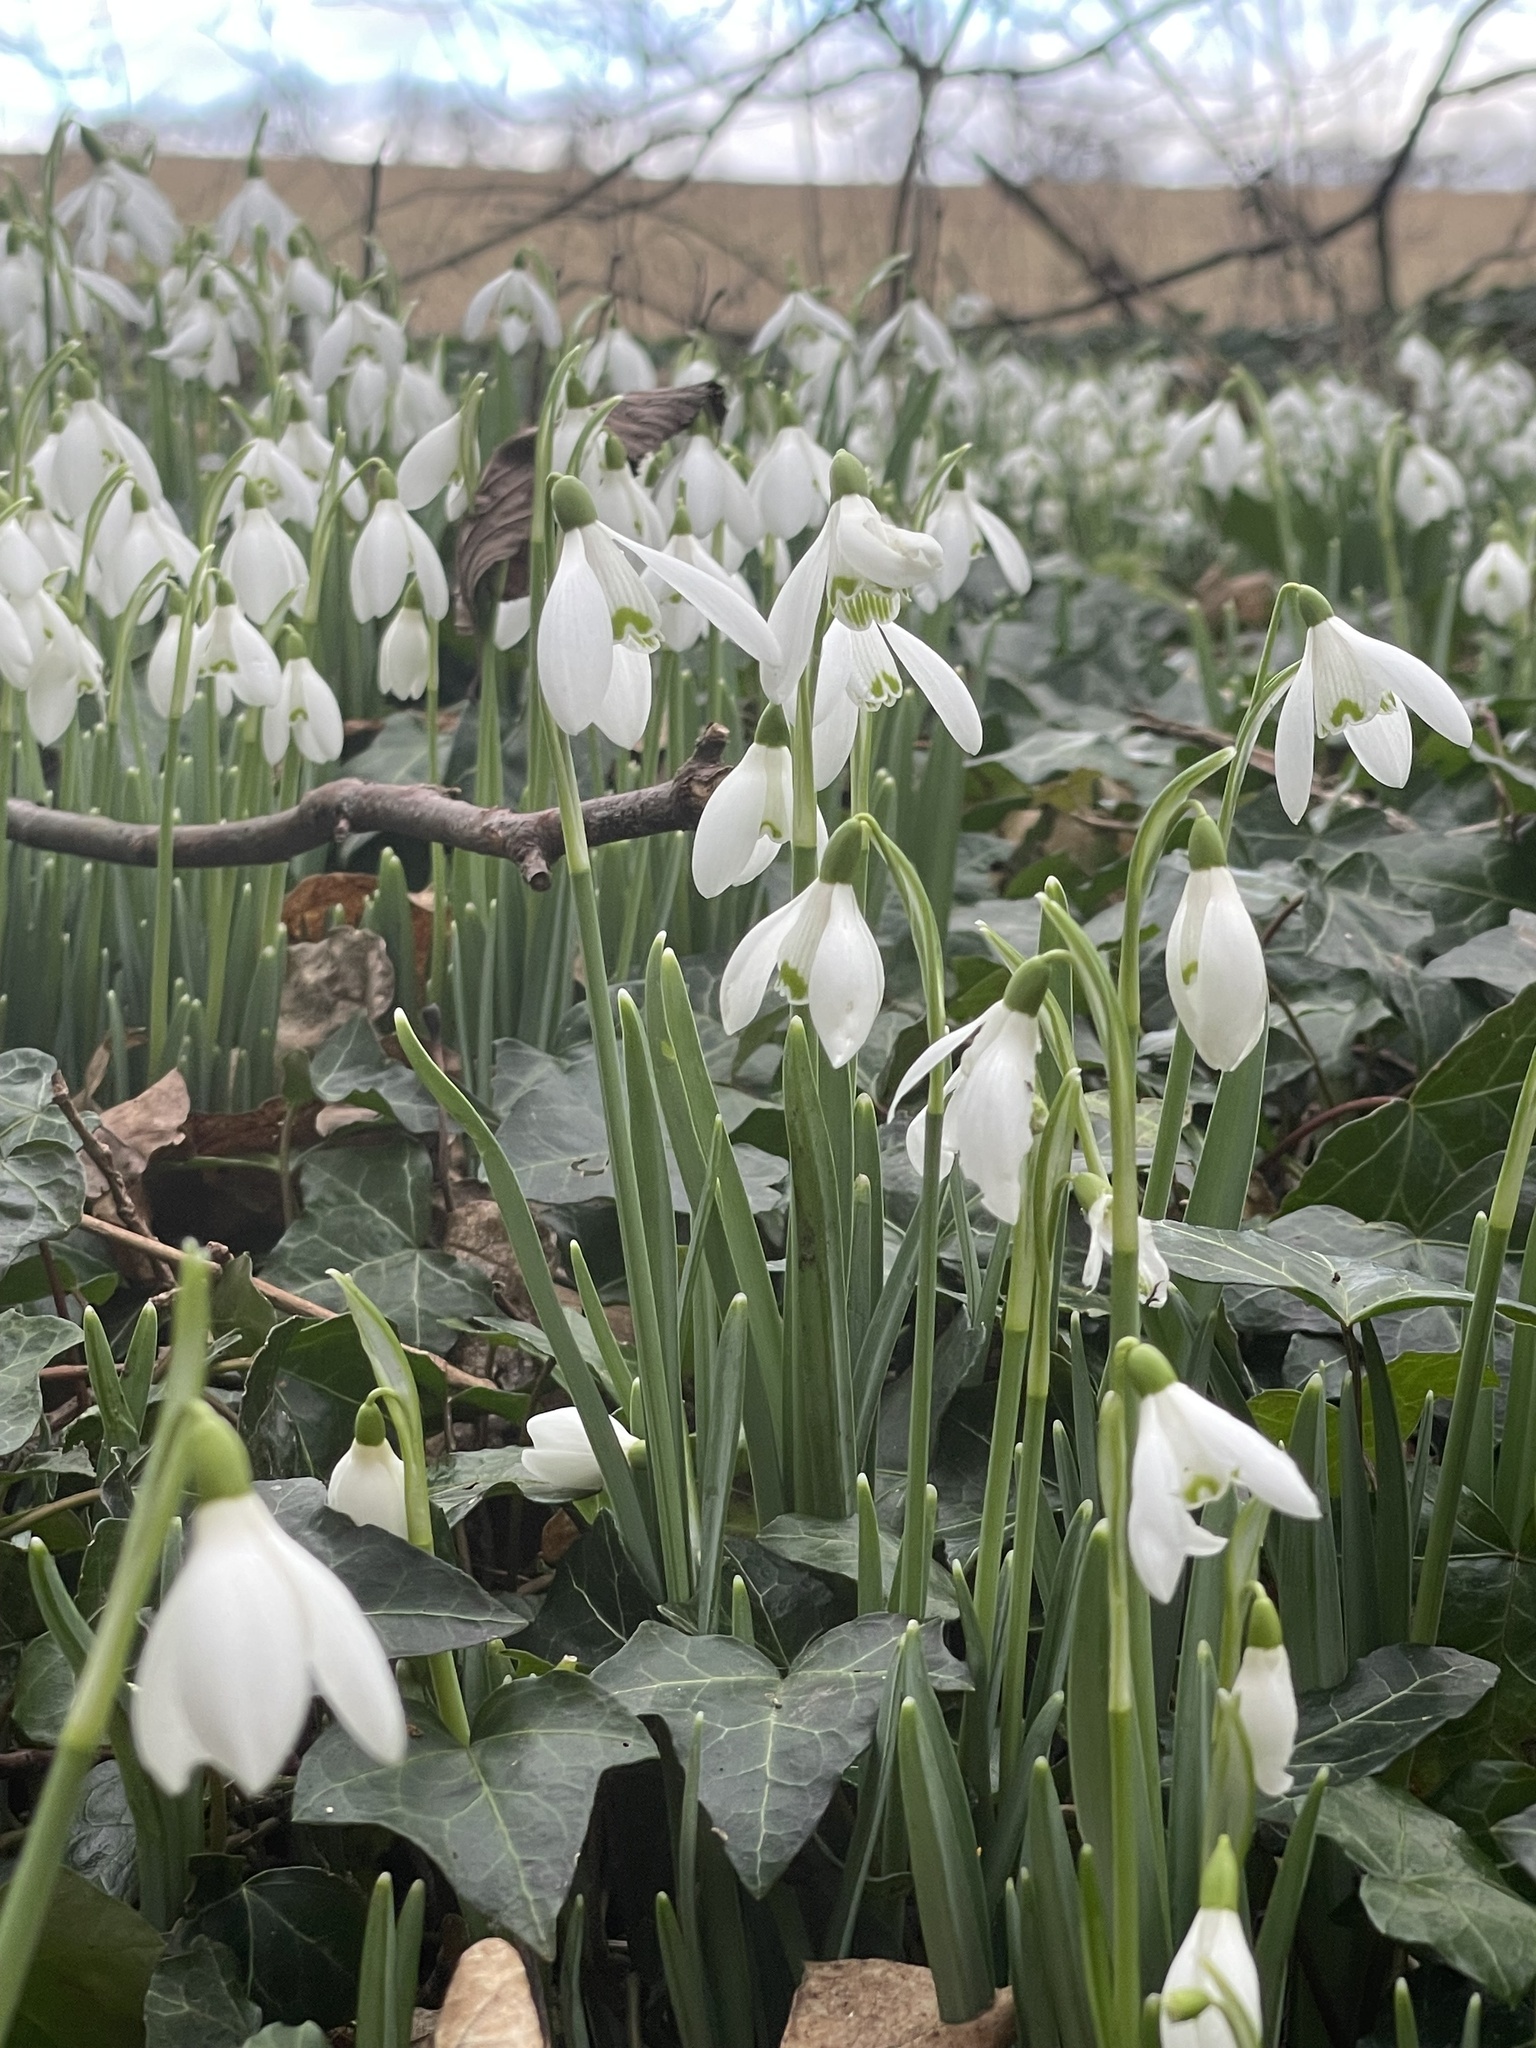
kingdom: Plantae
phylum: Tracheophyta
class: Liliopsida
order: Asparagales
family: Amaryllidaceae
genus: Galanthus
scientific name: Galanthus nivalis
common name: Snowdrop
